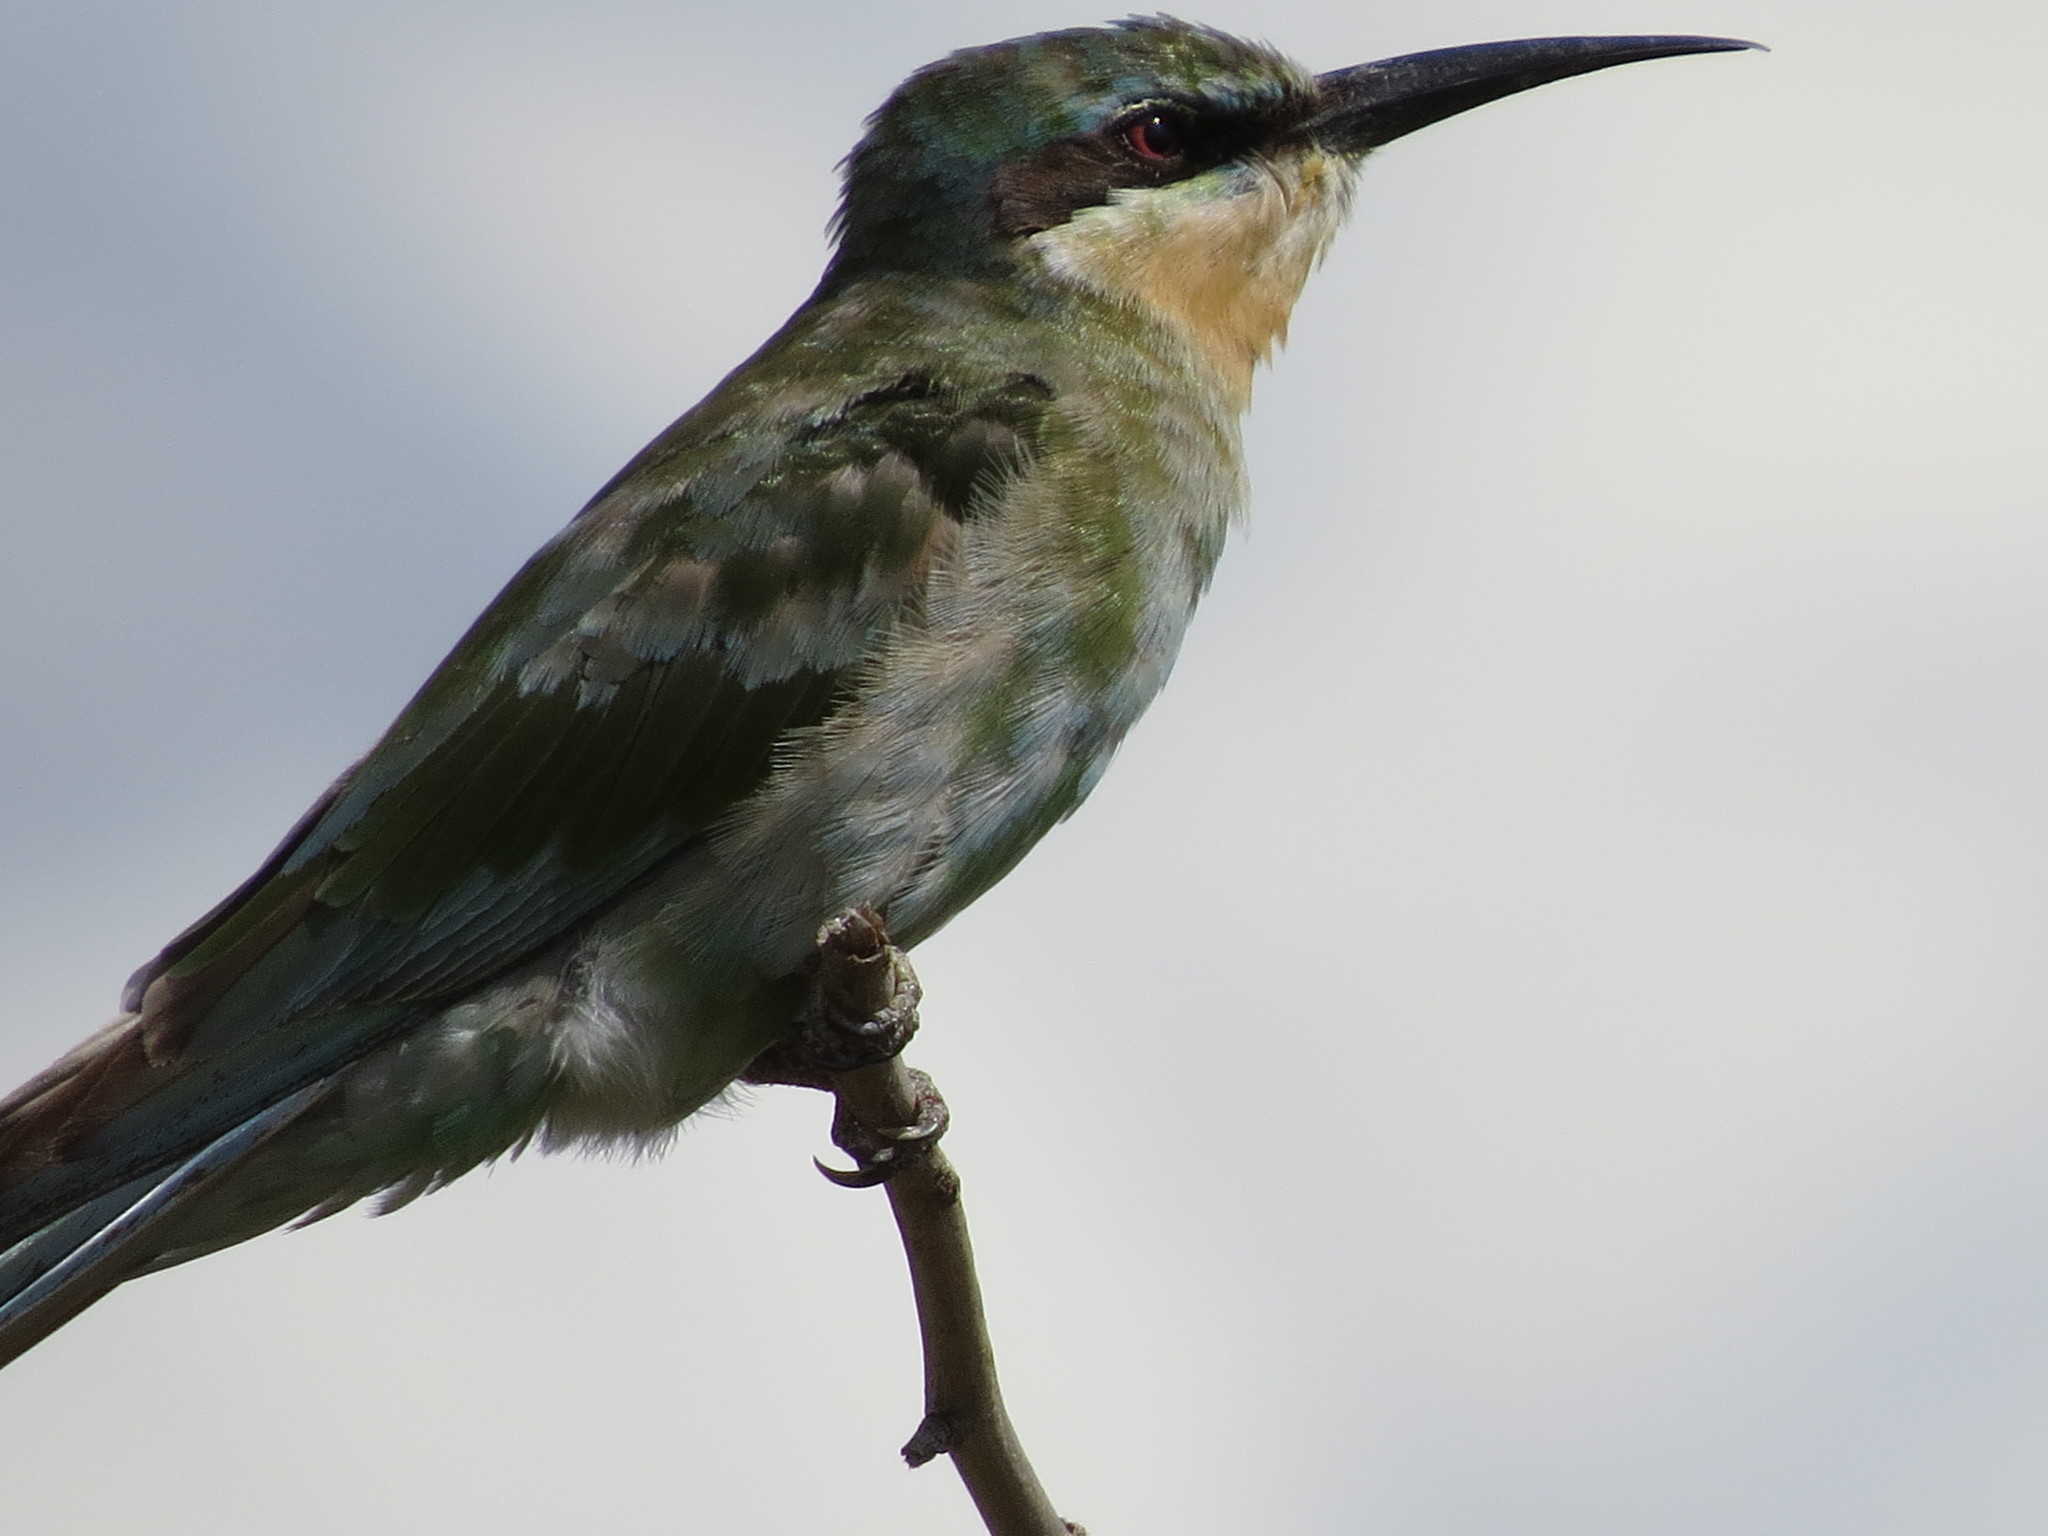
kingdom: Animalia
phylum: Chordata
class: Aves
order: Coraciiformes
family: Meropidae
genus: Merops
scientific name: Merops persicus
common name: Blue-cheeked bee-eater
